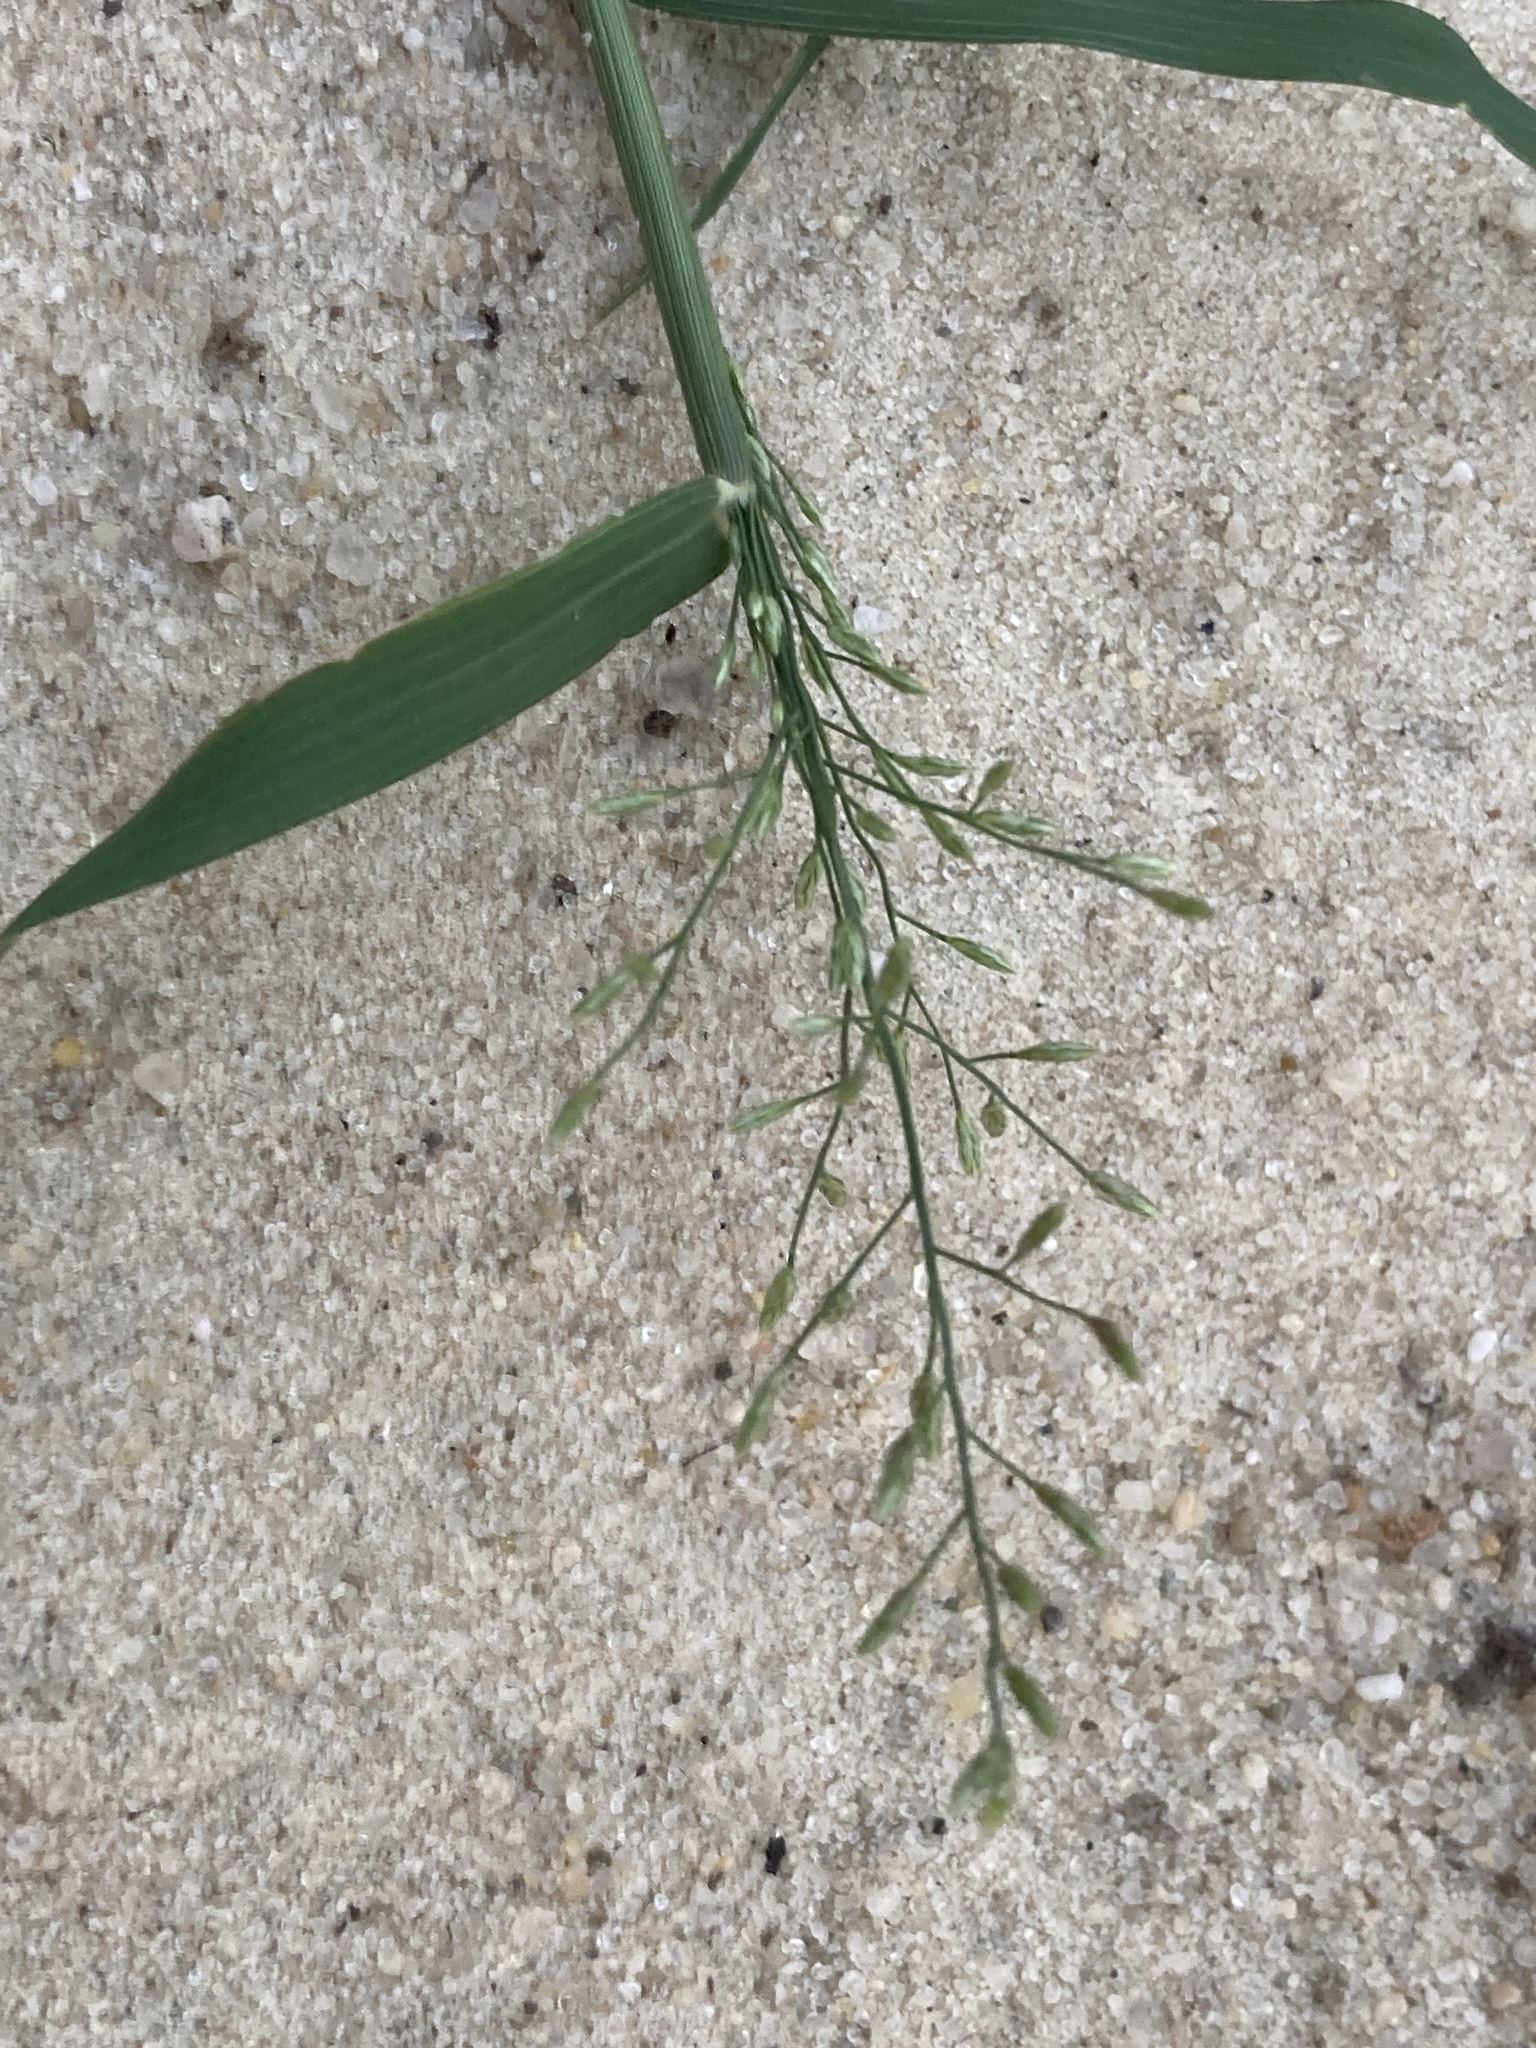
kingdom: Plantae
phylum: Tracheophyta
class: Liliopsida
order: Poales
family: Poaceae
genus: Eragrostis
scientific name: Eragrostis minor
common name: Small love-grass
